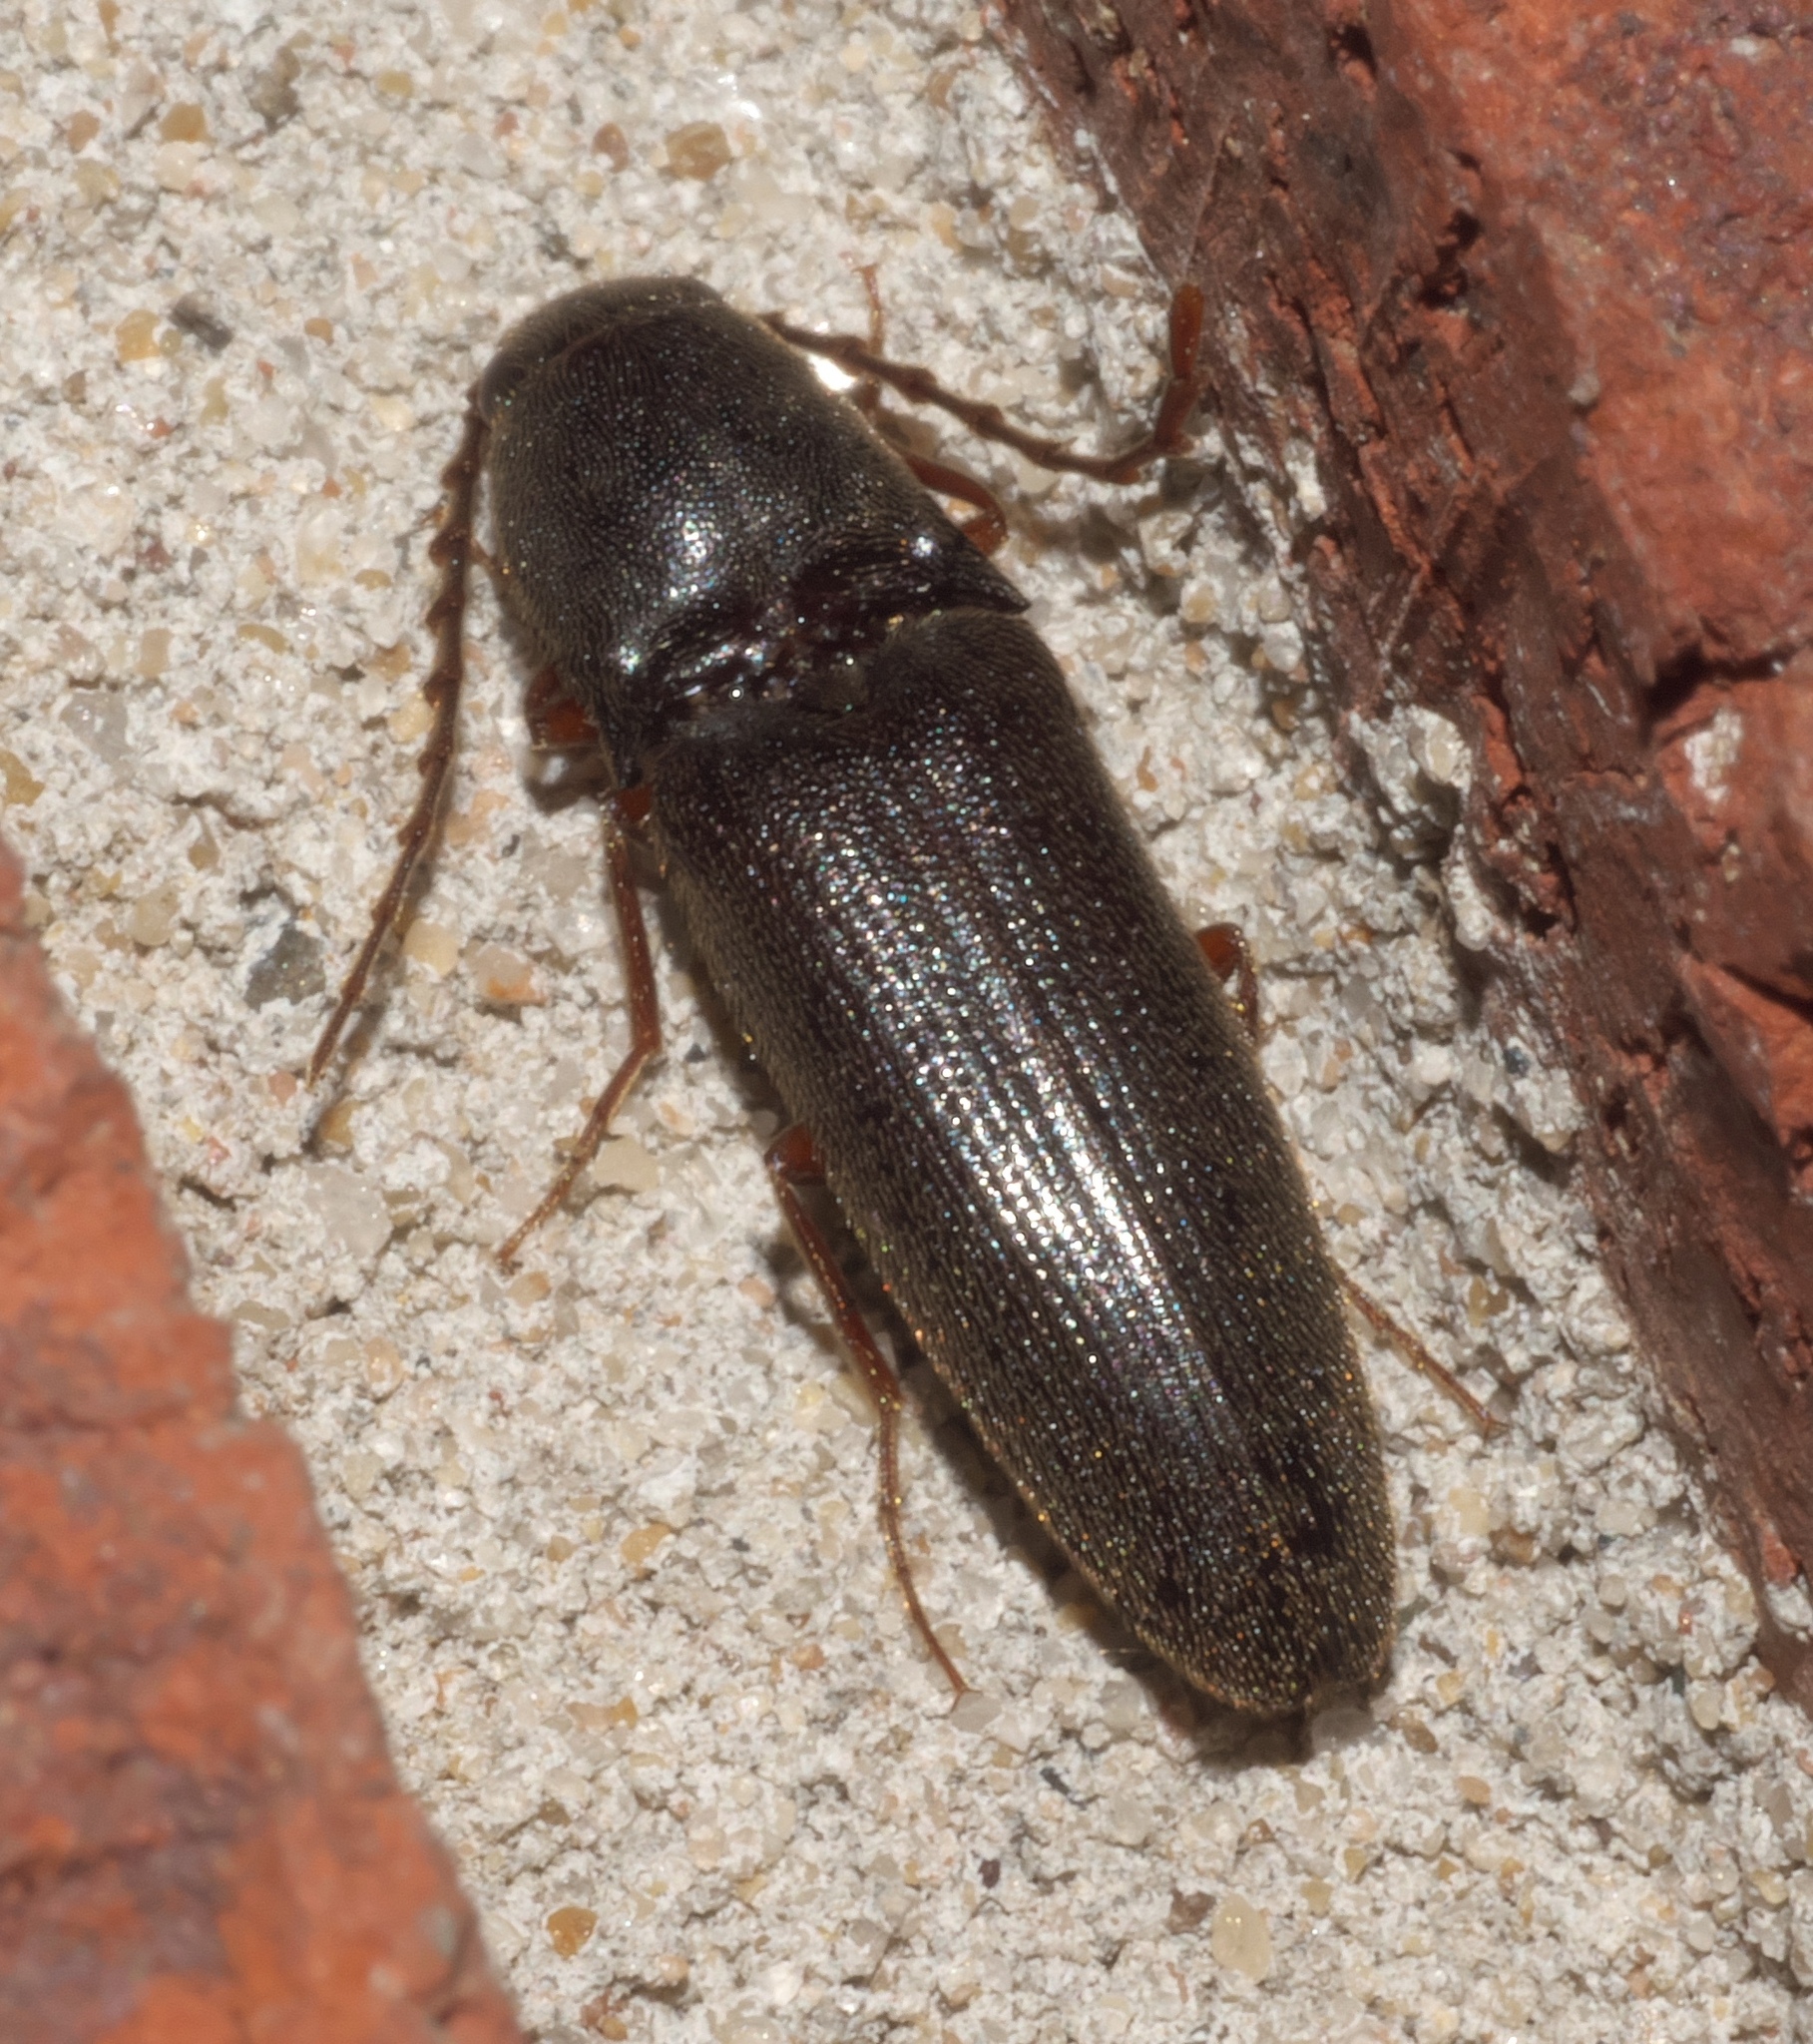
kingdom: Animalia
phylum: Arthropoda
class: Insecta
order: Coleoptera
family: Elateridae
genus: Megapenthes
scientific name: Megapenthes insignis
